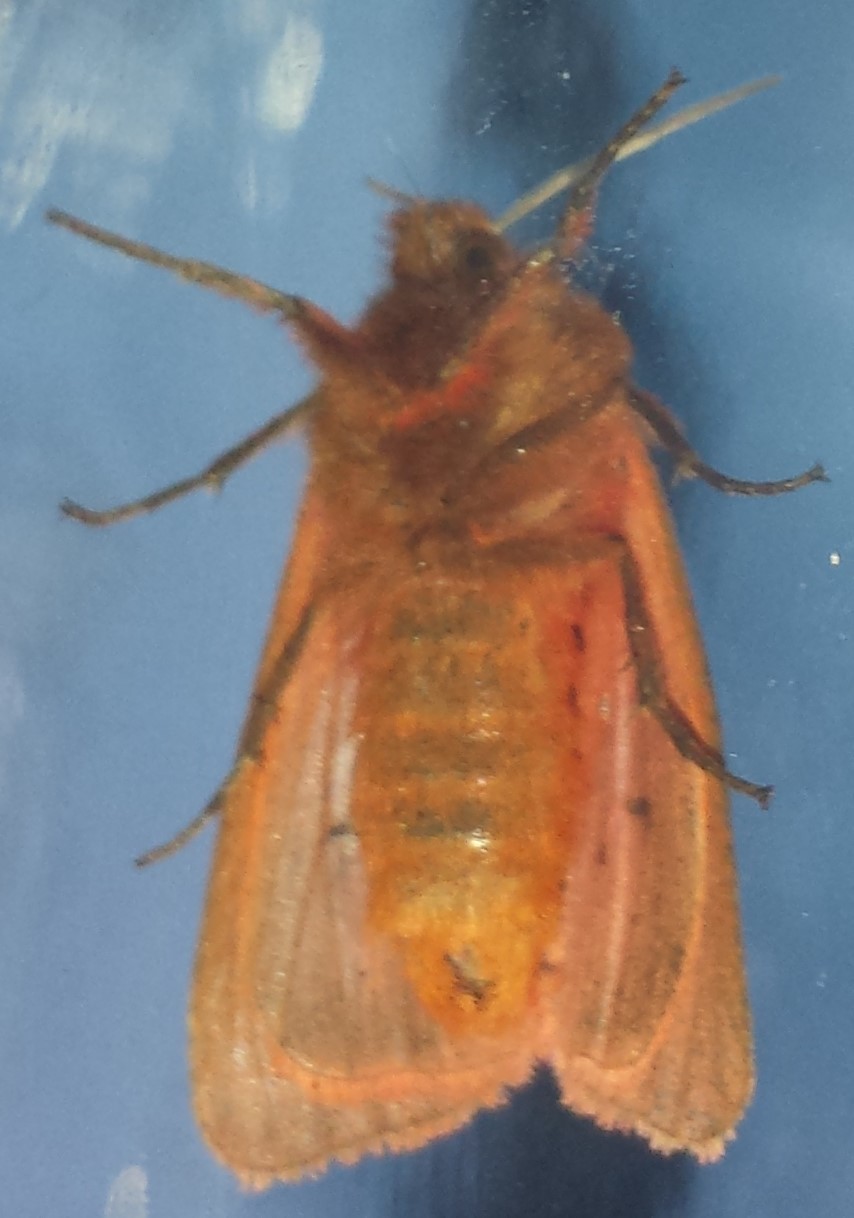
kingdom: Animalia
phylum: Arthropoda
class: Insecta
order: Lepidoptera
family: Erebidae
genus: Phragmatobia
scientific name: Phragmatobia fuliginosa
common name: Ruby tiger
